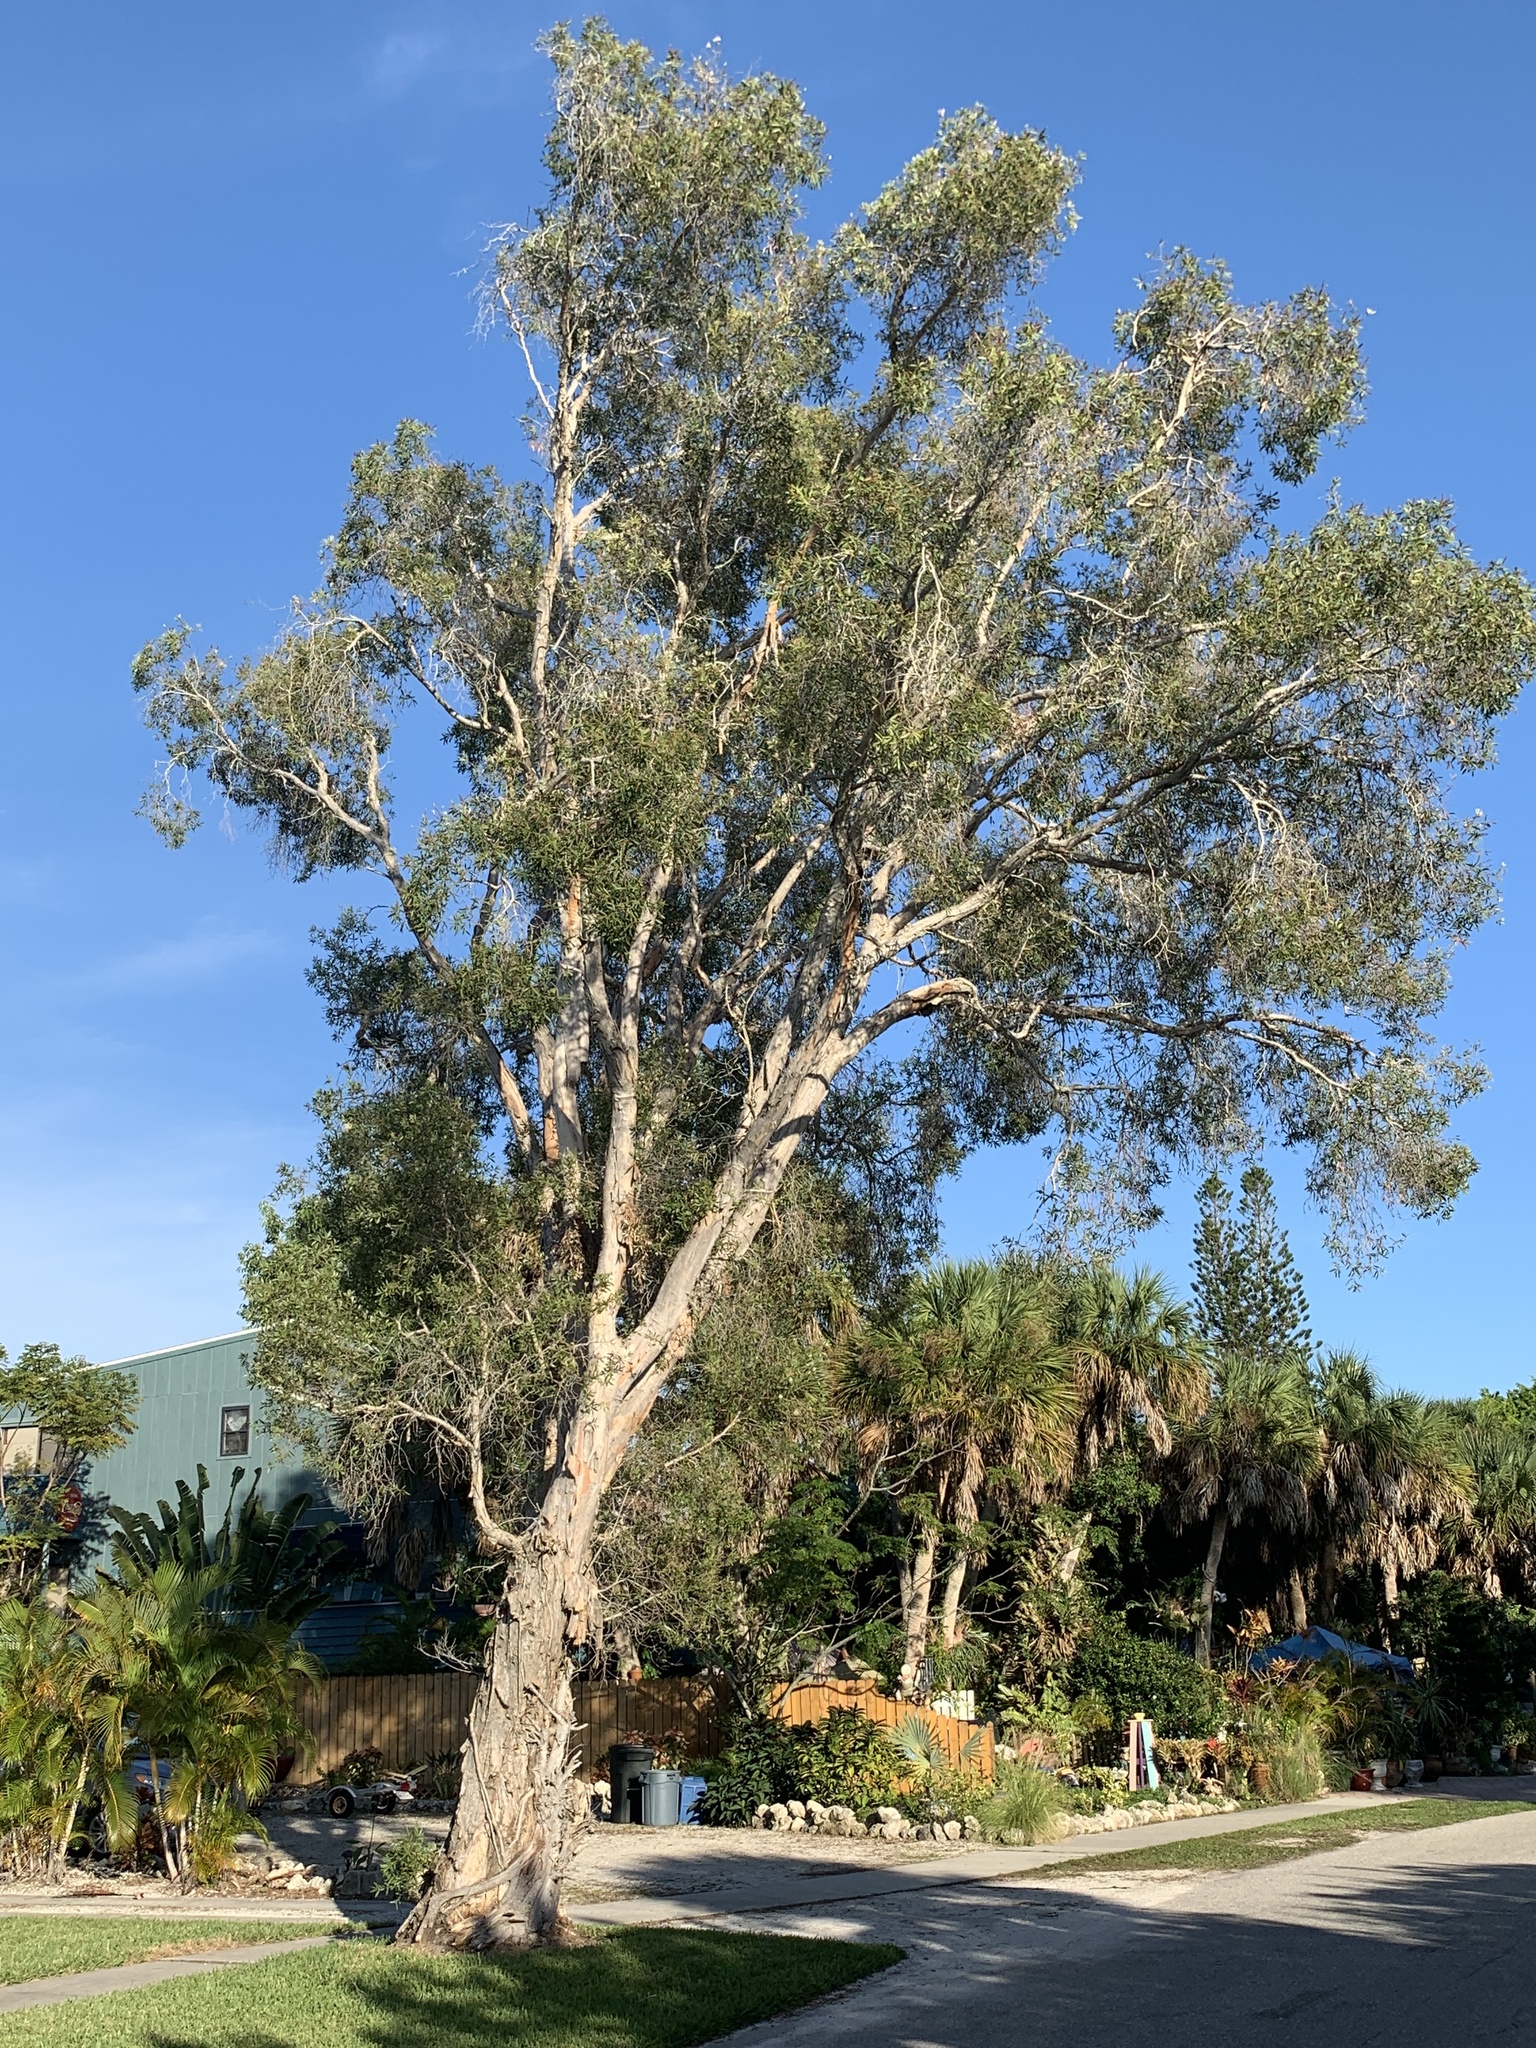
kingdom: Plantae
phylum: Tracheophyta
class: Magnoliopsida
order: Myrtales
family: Myrtaceae
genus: Melaleuca
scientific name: Melaleuca quinquenervia
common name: Punktree
